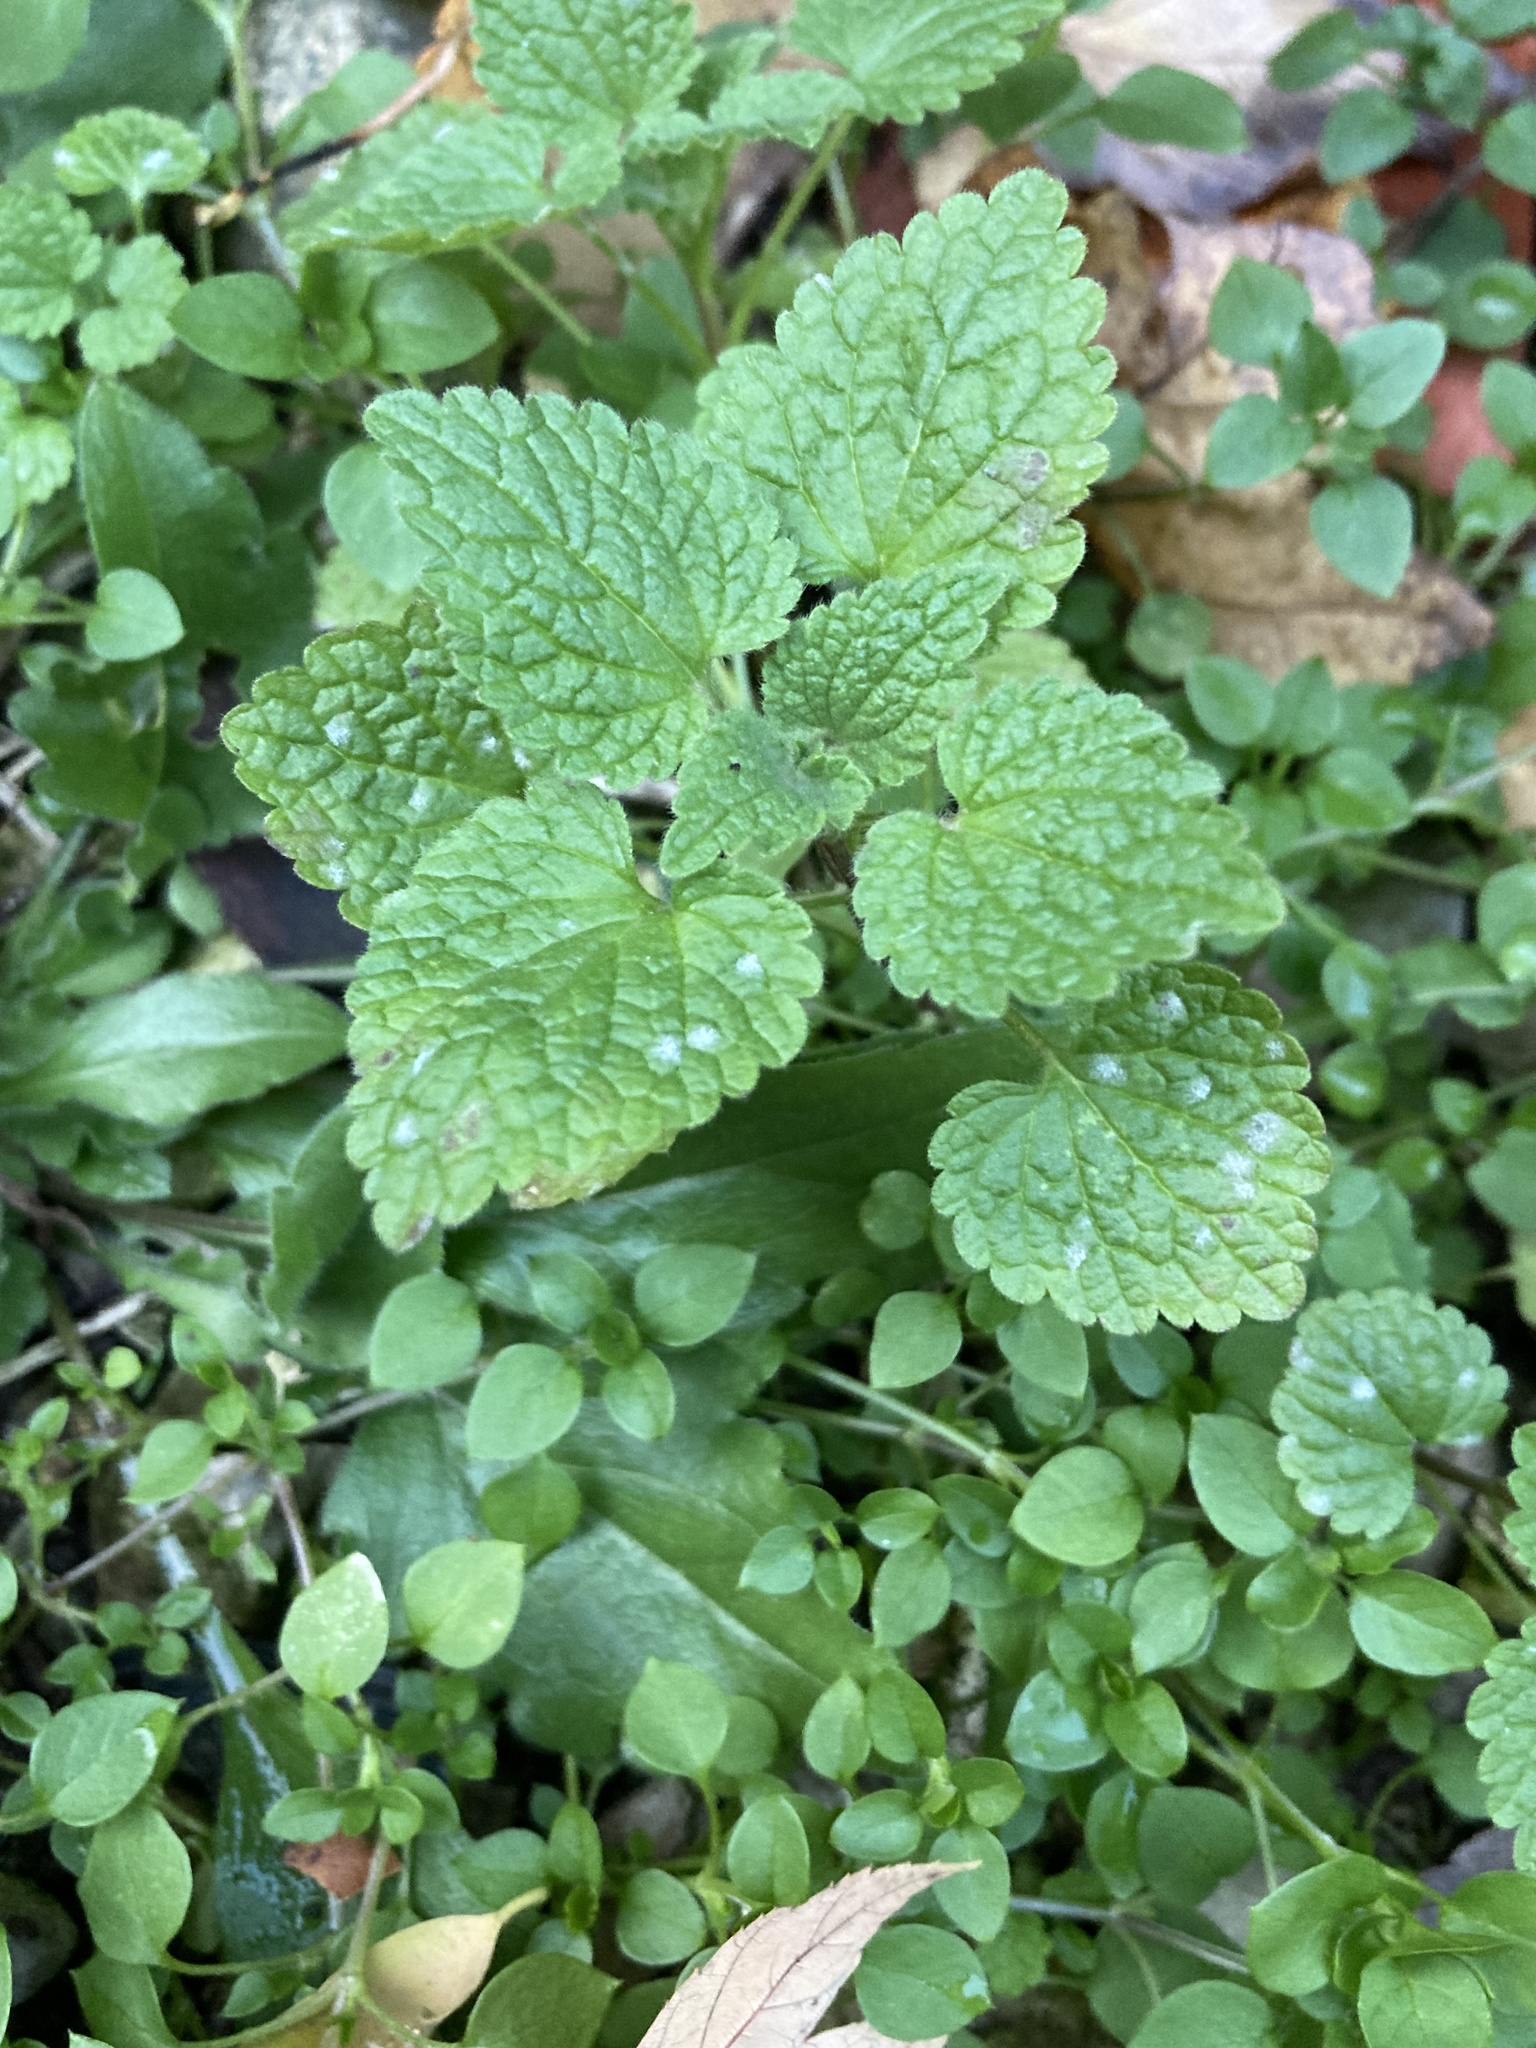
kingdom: Plantae
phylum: Tracheophyta
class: Magnoliopsida
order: Lamiales
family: Lamiaceae
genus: Lamium
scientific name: Lamium purpureum
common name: Red dead-nettle
